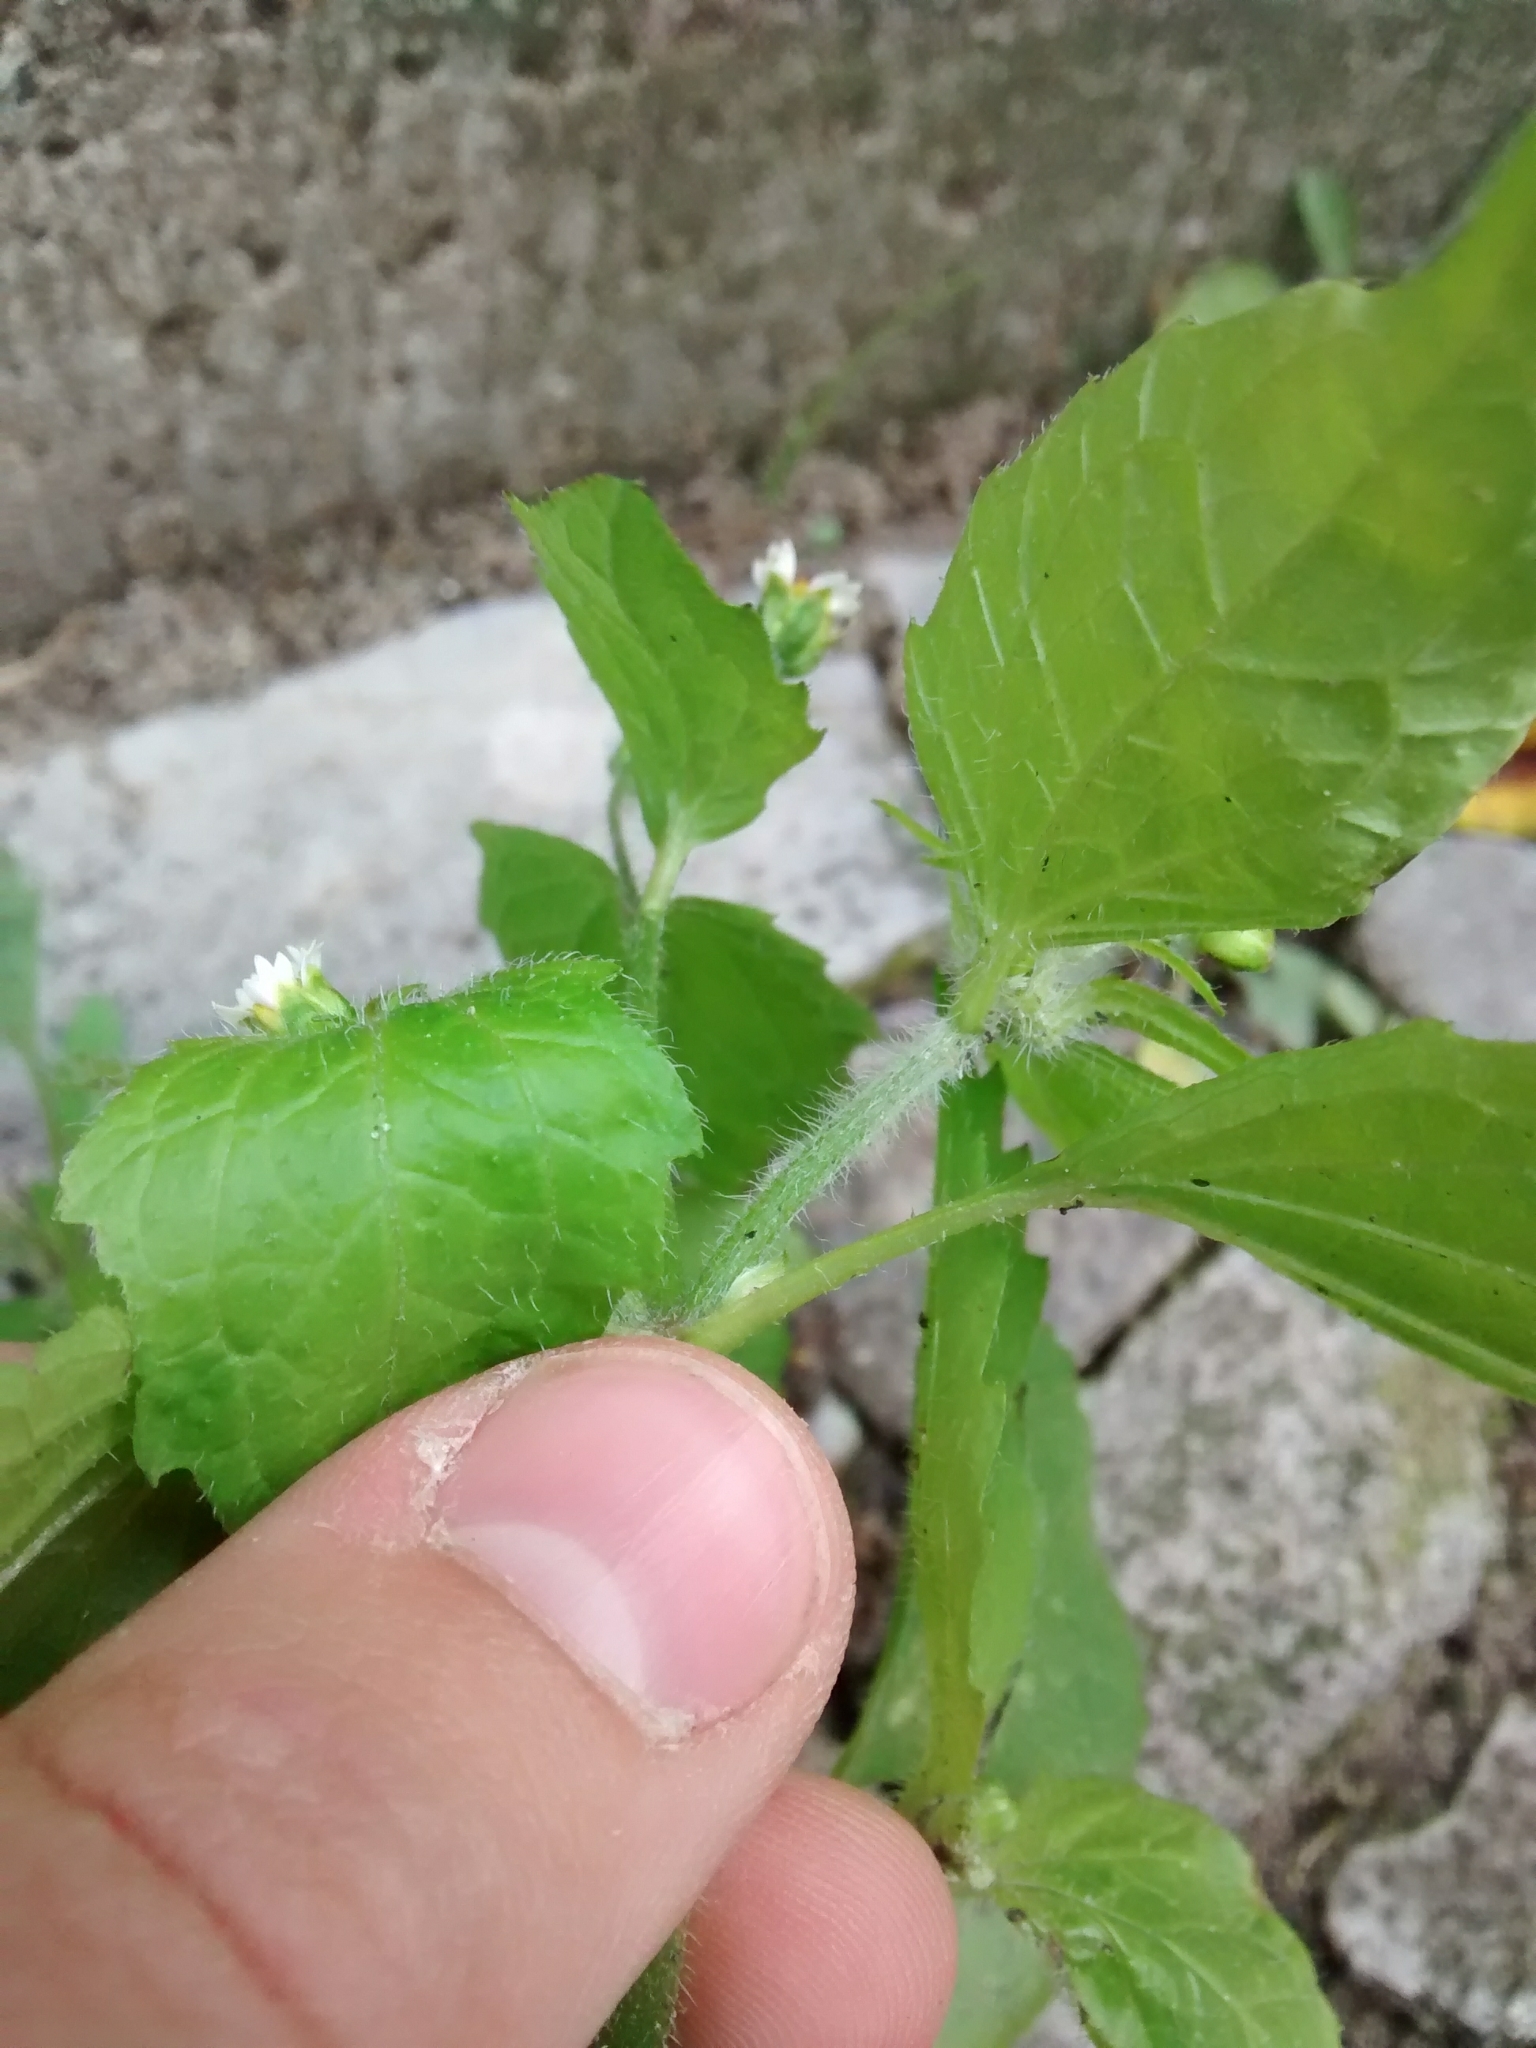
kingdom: Plantae
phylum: Tracheophyta
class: Magnoliopsida
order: Asterales
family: Asteraceae
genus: Galinsoga
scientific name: Galinsoga quadriradiata
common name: Shaggy soldier
